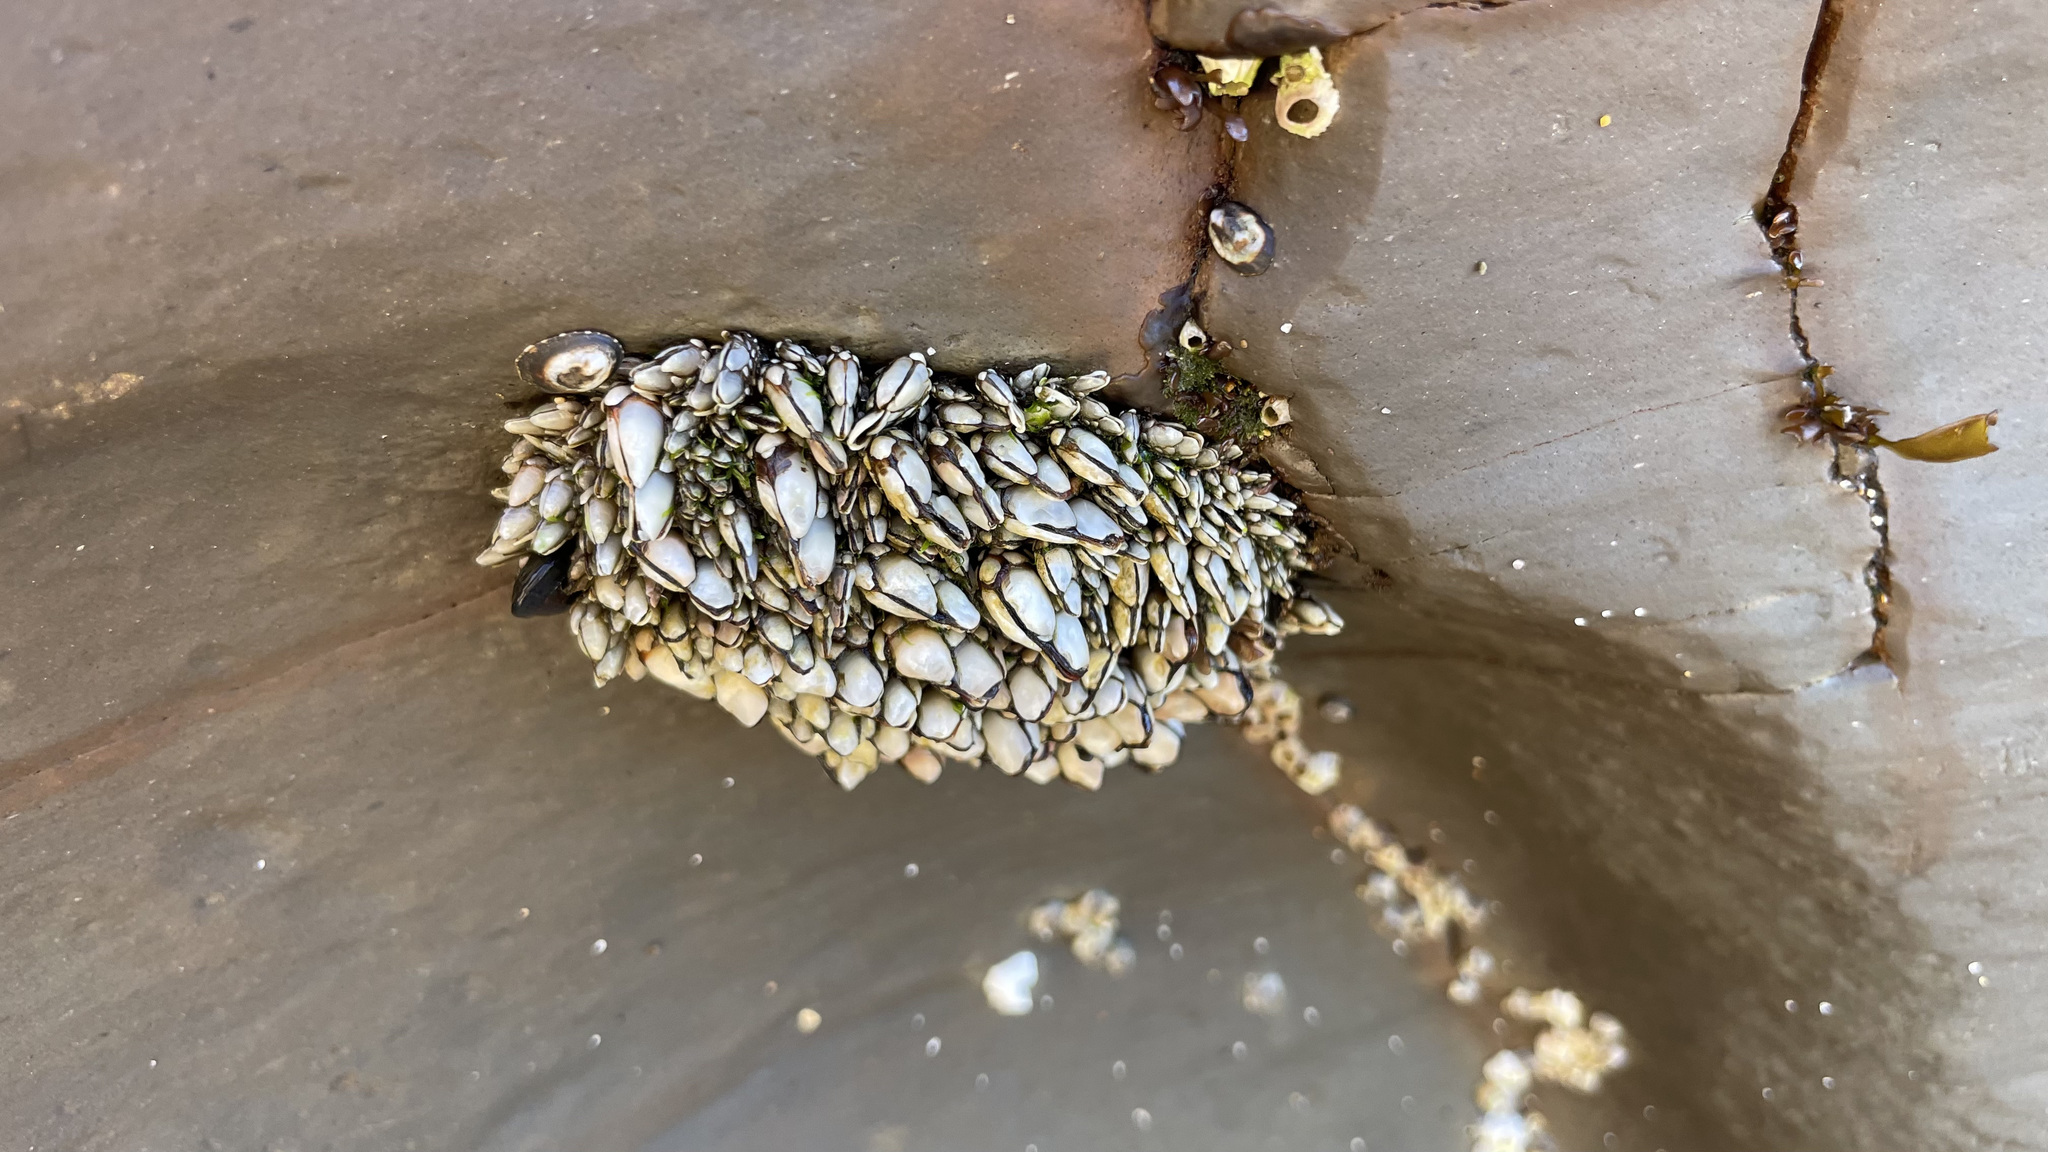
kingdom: Animalia
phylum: Arthropoda
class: Maxillopoda
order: Pedunculata
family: Pollicipedidae
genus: Pollicipes
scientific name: Pollicipes polymerus
